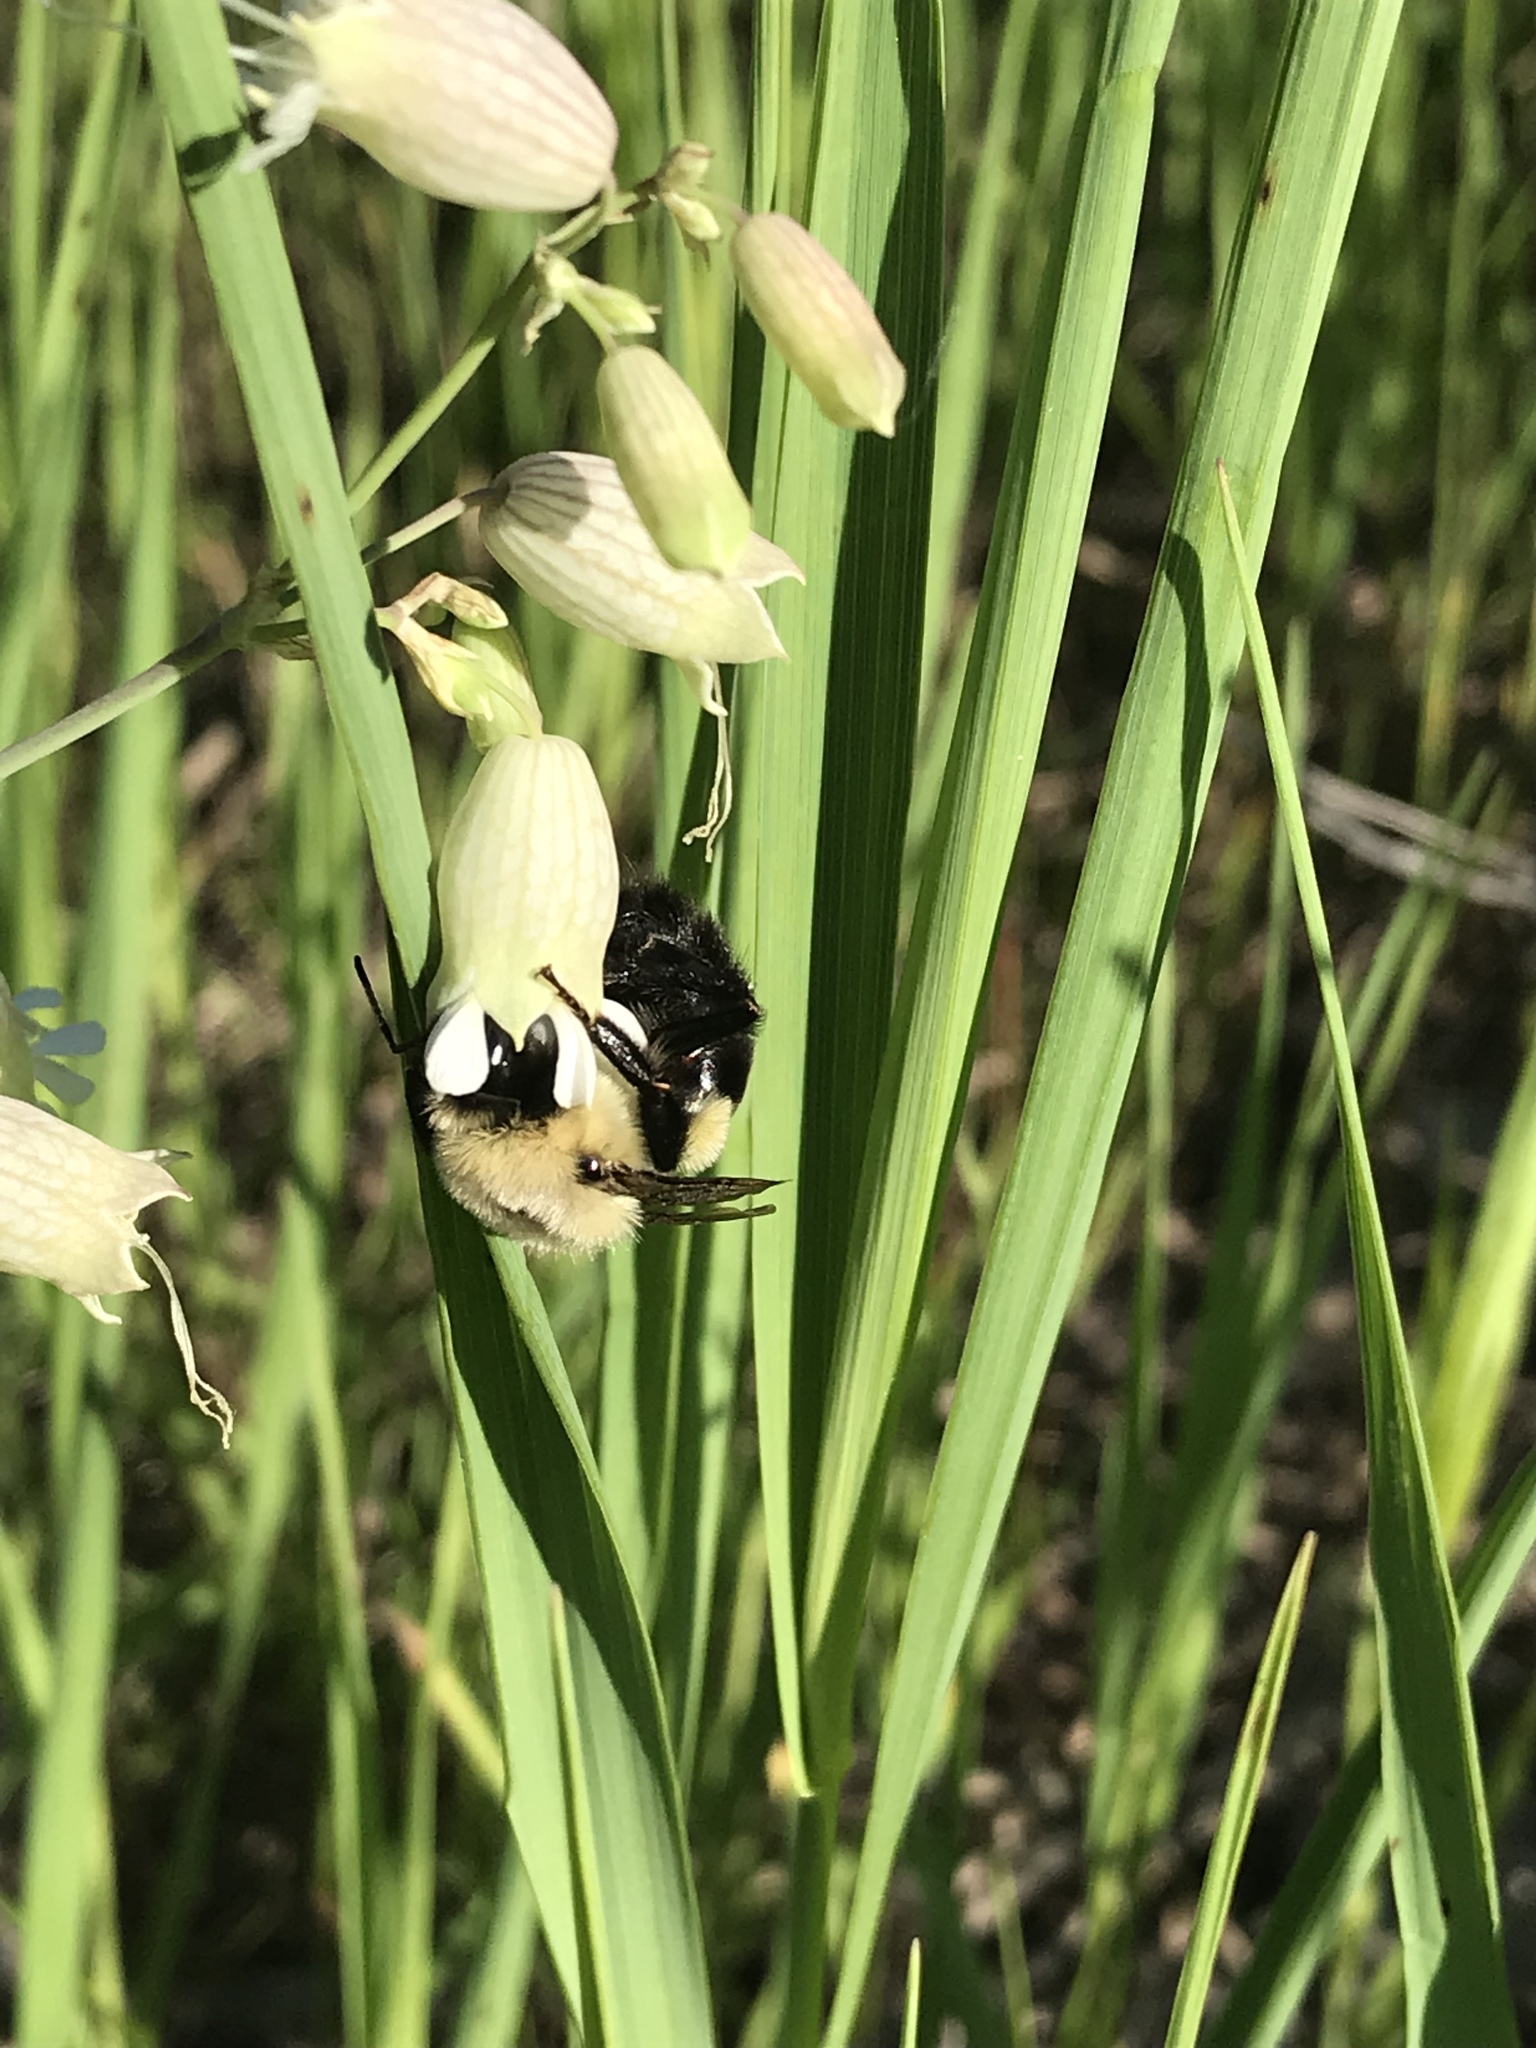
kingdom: Animalia
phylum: Arthropoda
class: Insecta
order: Hymenoptera
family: Apidae
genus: Bombus
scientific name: Bombus impatiens
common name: Common eastern bumble bee
